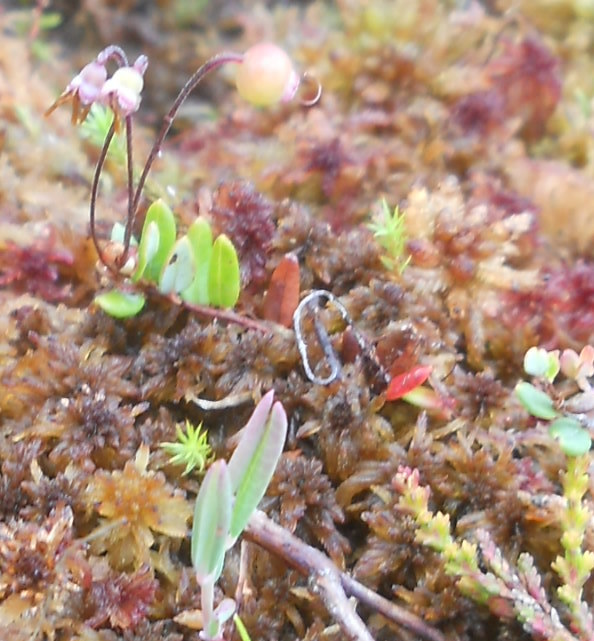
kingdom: Plantae
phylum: Tracheophyta
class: Magnoliopsida
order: Ericales
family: Ericaceae
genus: Vaccinium
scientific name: Vaccinium microcarpum
